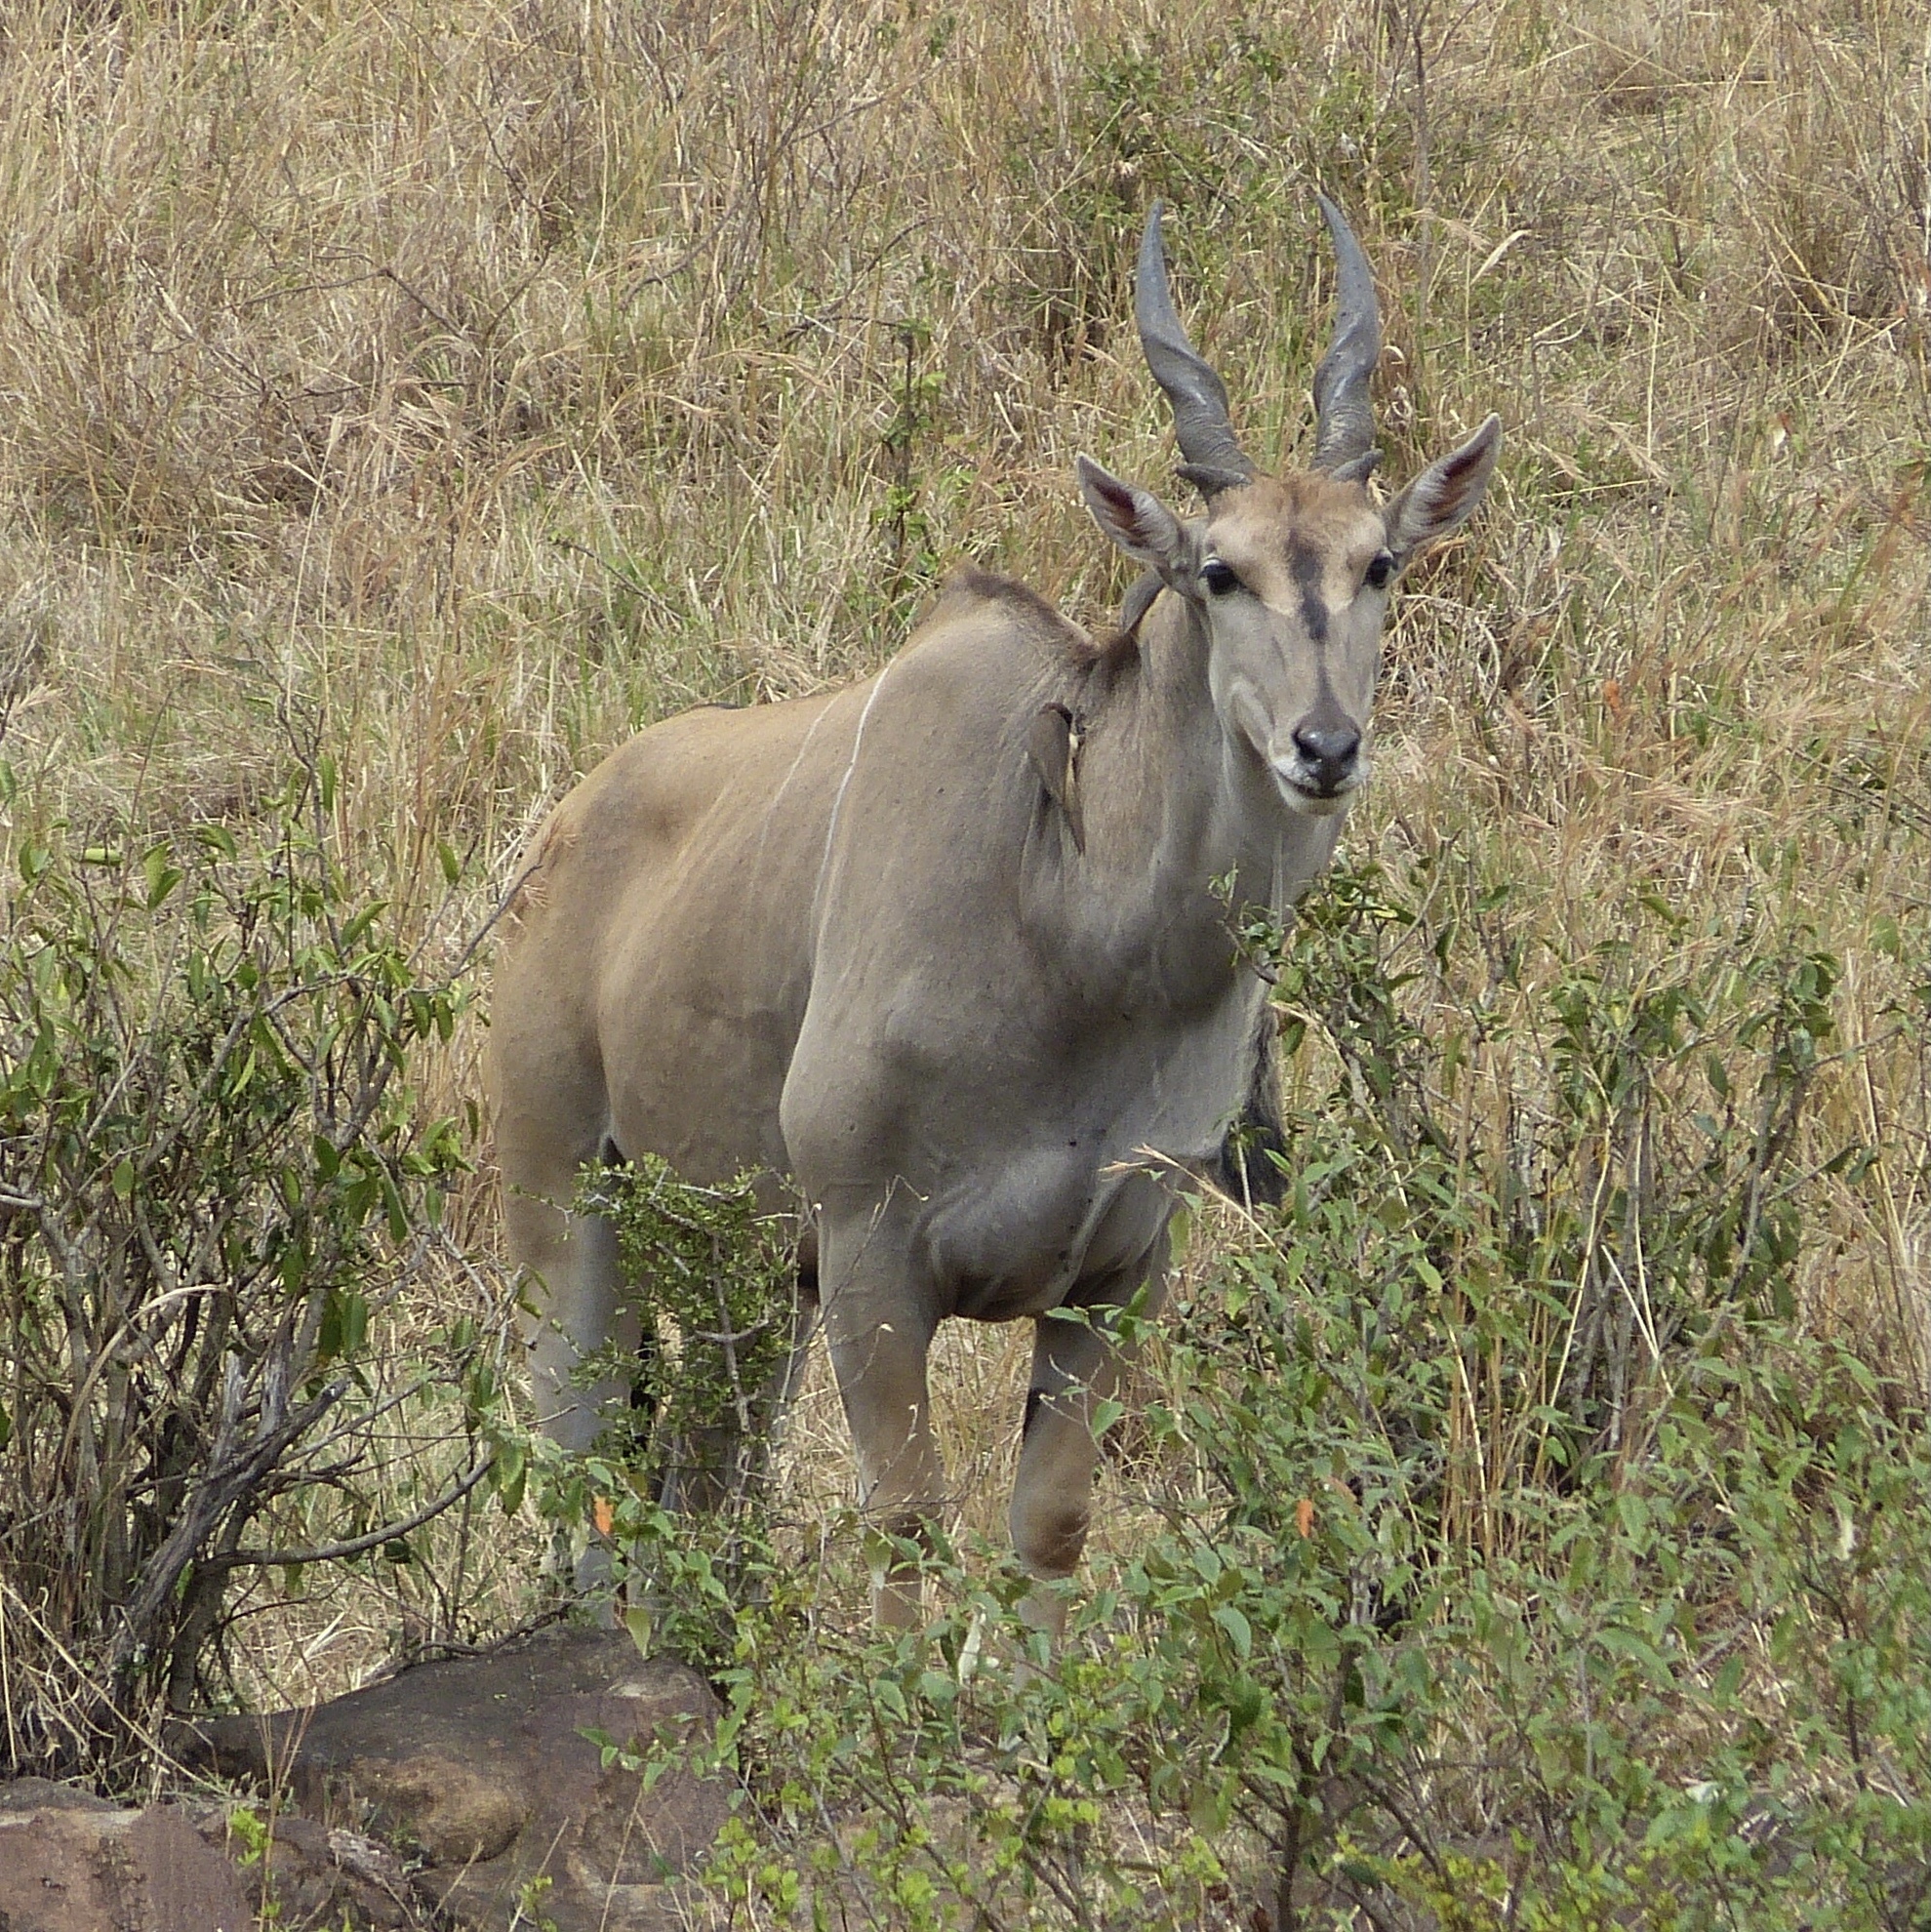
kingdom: Animalia
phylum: Chordata
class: Mammalia
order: Artiodactyla
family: Bovidae
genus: Taurotragus
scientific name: Taurotragus oryx
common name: Common eland
